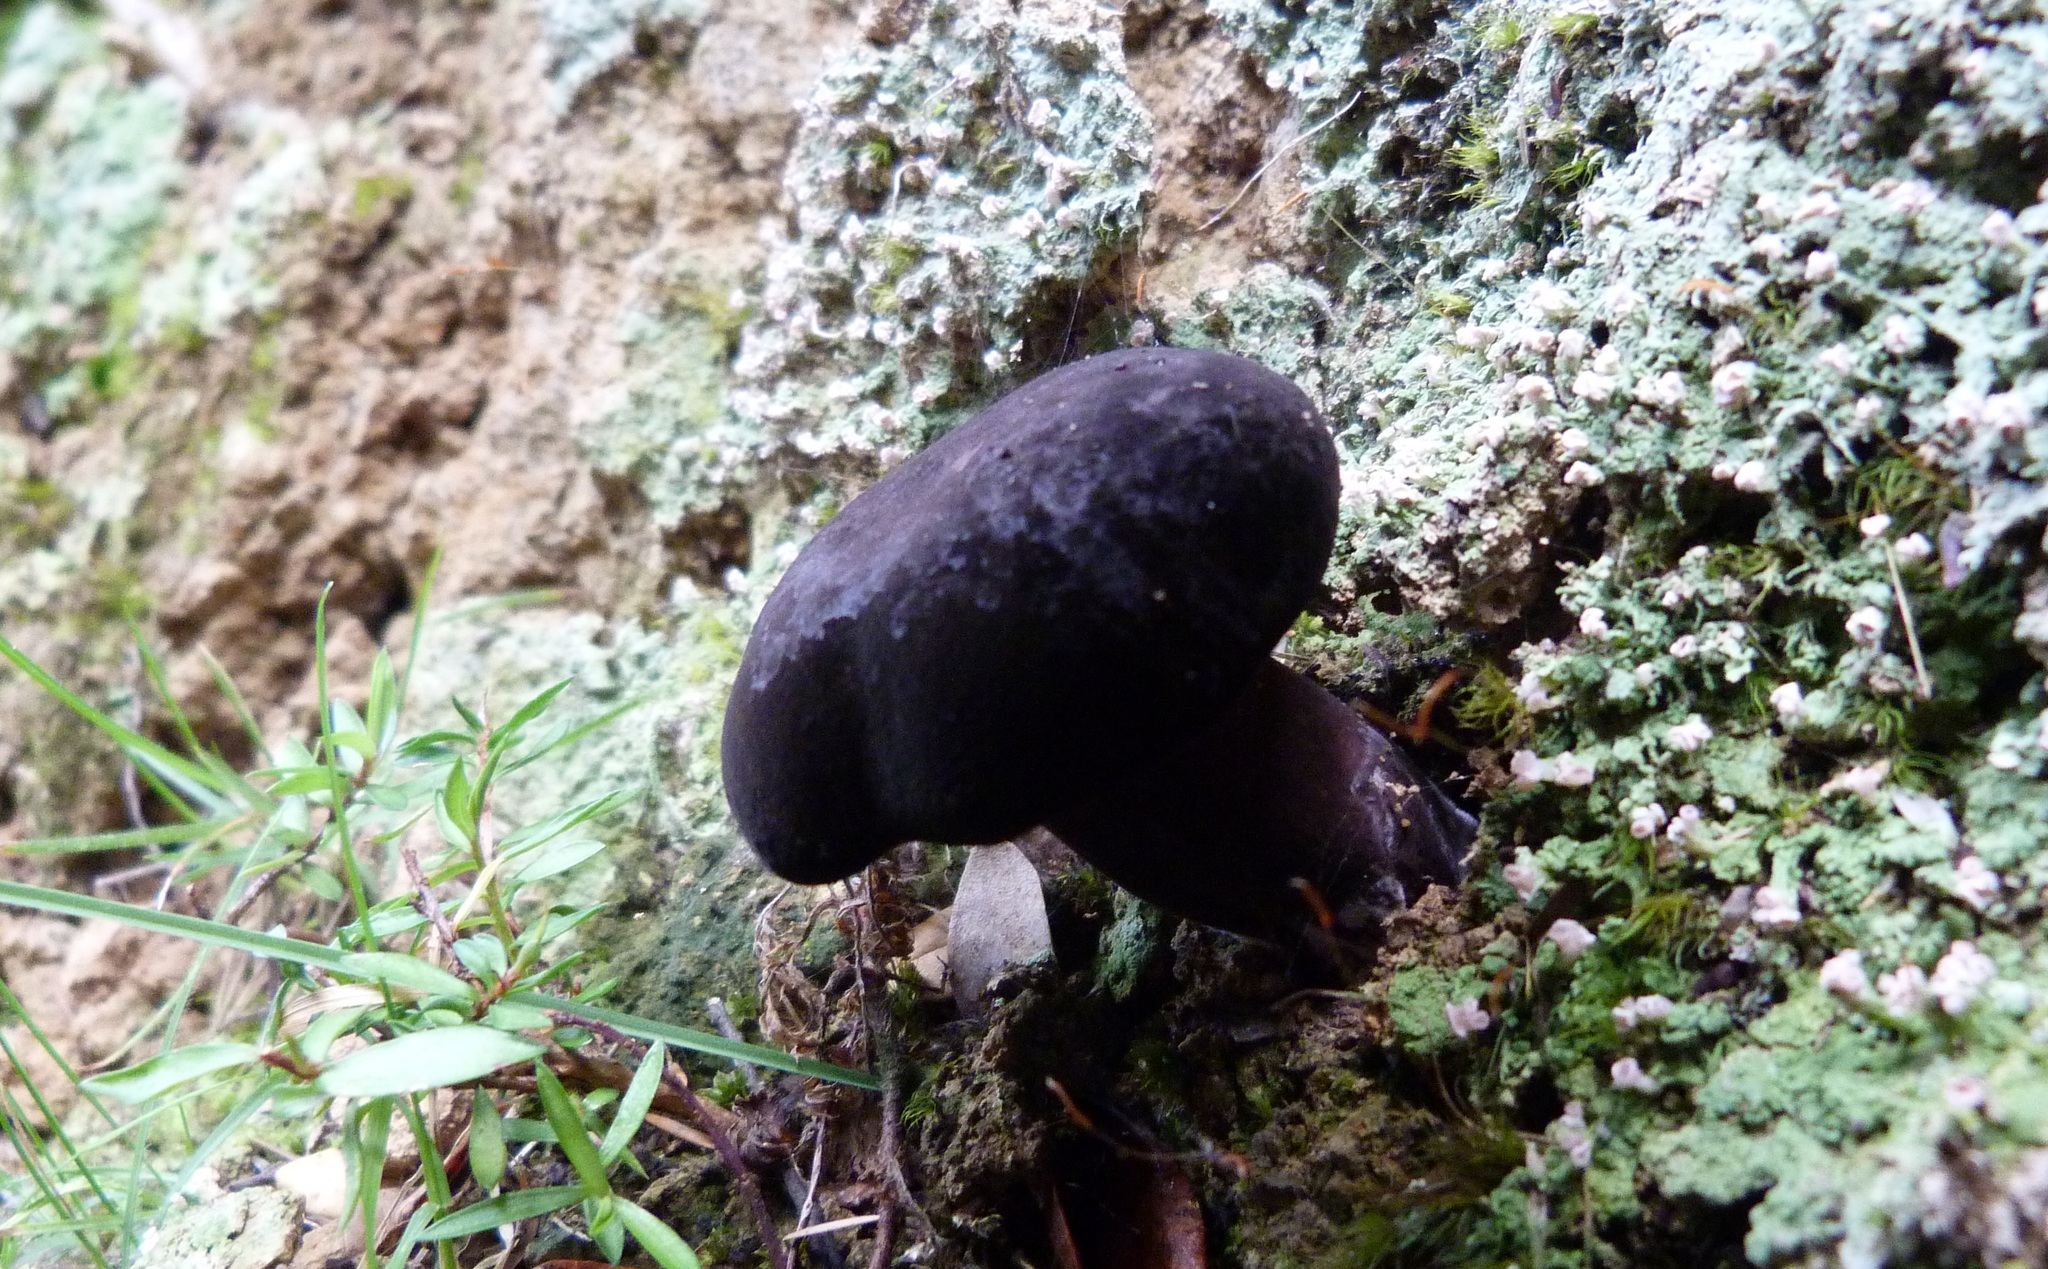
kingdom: Fungi
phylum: Basidiomycota
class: Agaricomycetes
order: Boletales
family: Boletaceae
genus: Porphyrellus
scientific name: Porphyrellus formosus
